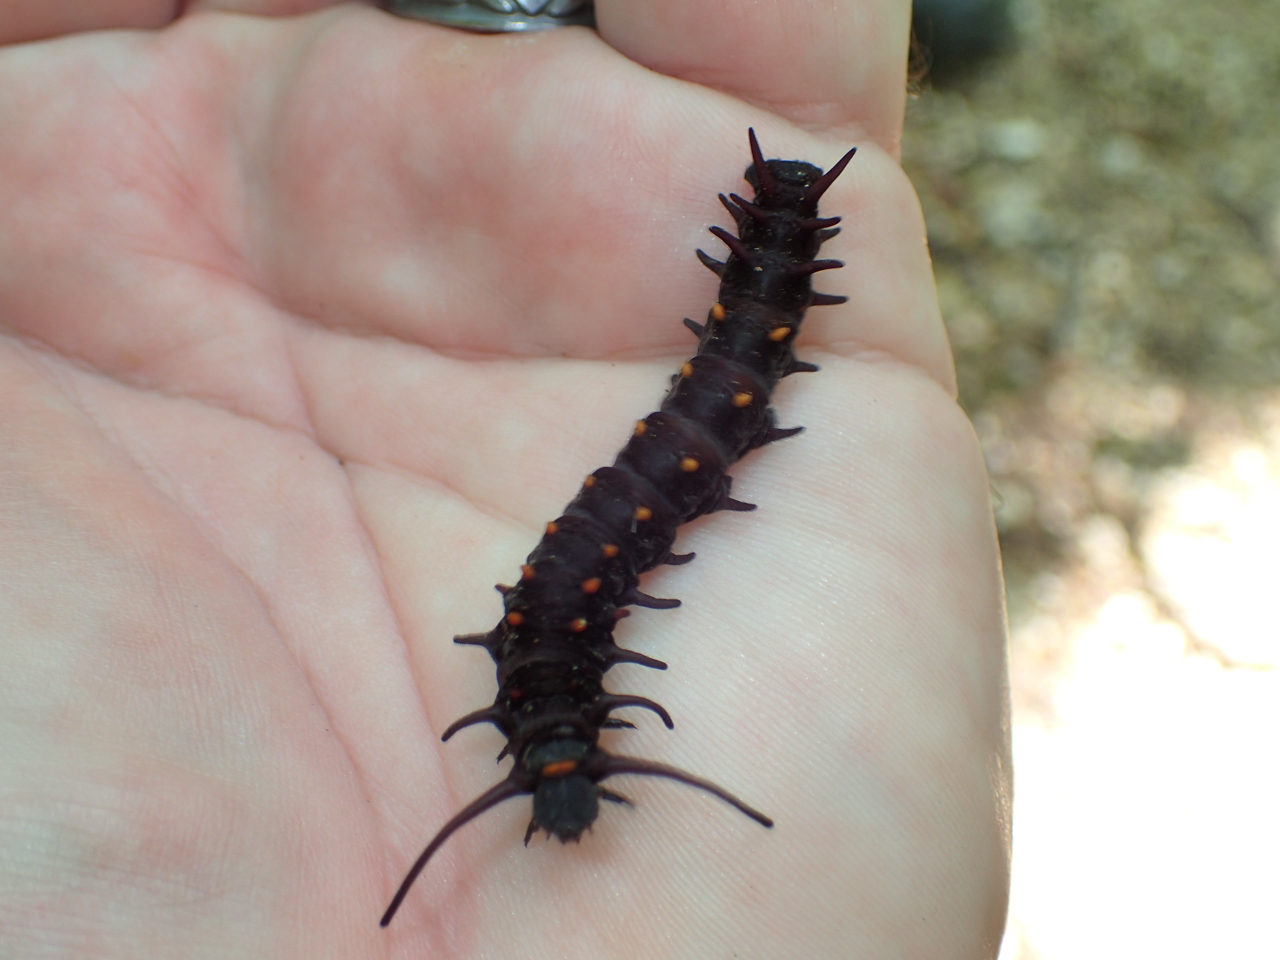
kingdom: Animalia
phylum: Arthropoda
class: Insecta
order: Lepidoptera
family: Papilionidae
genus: Battus
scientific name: Battus philenor
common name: Pipevine swallowtail
